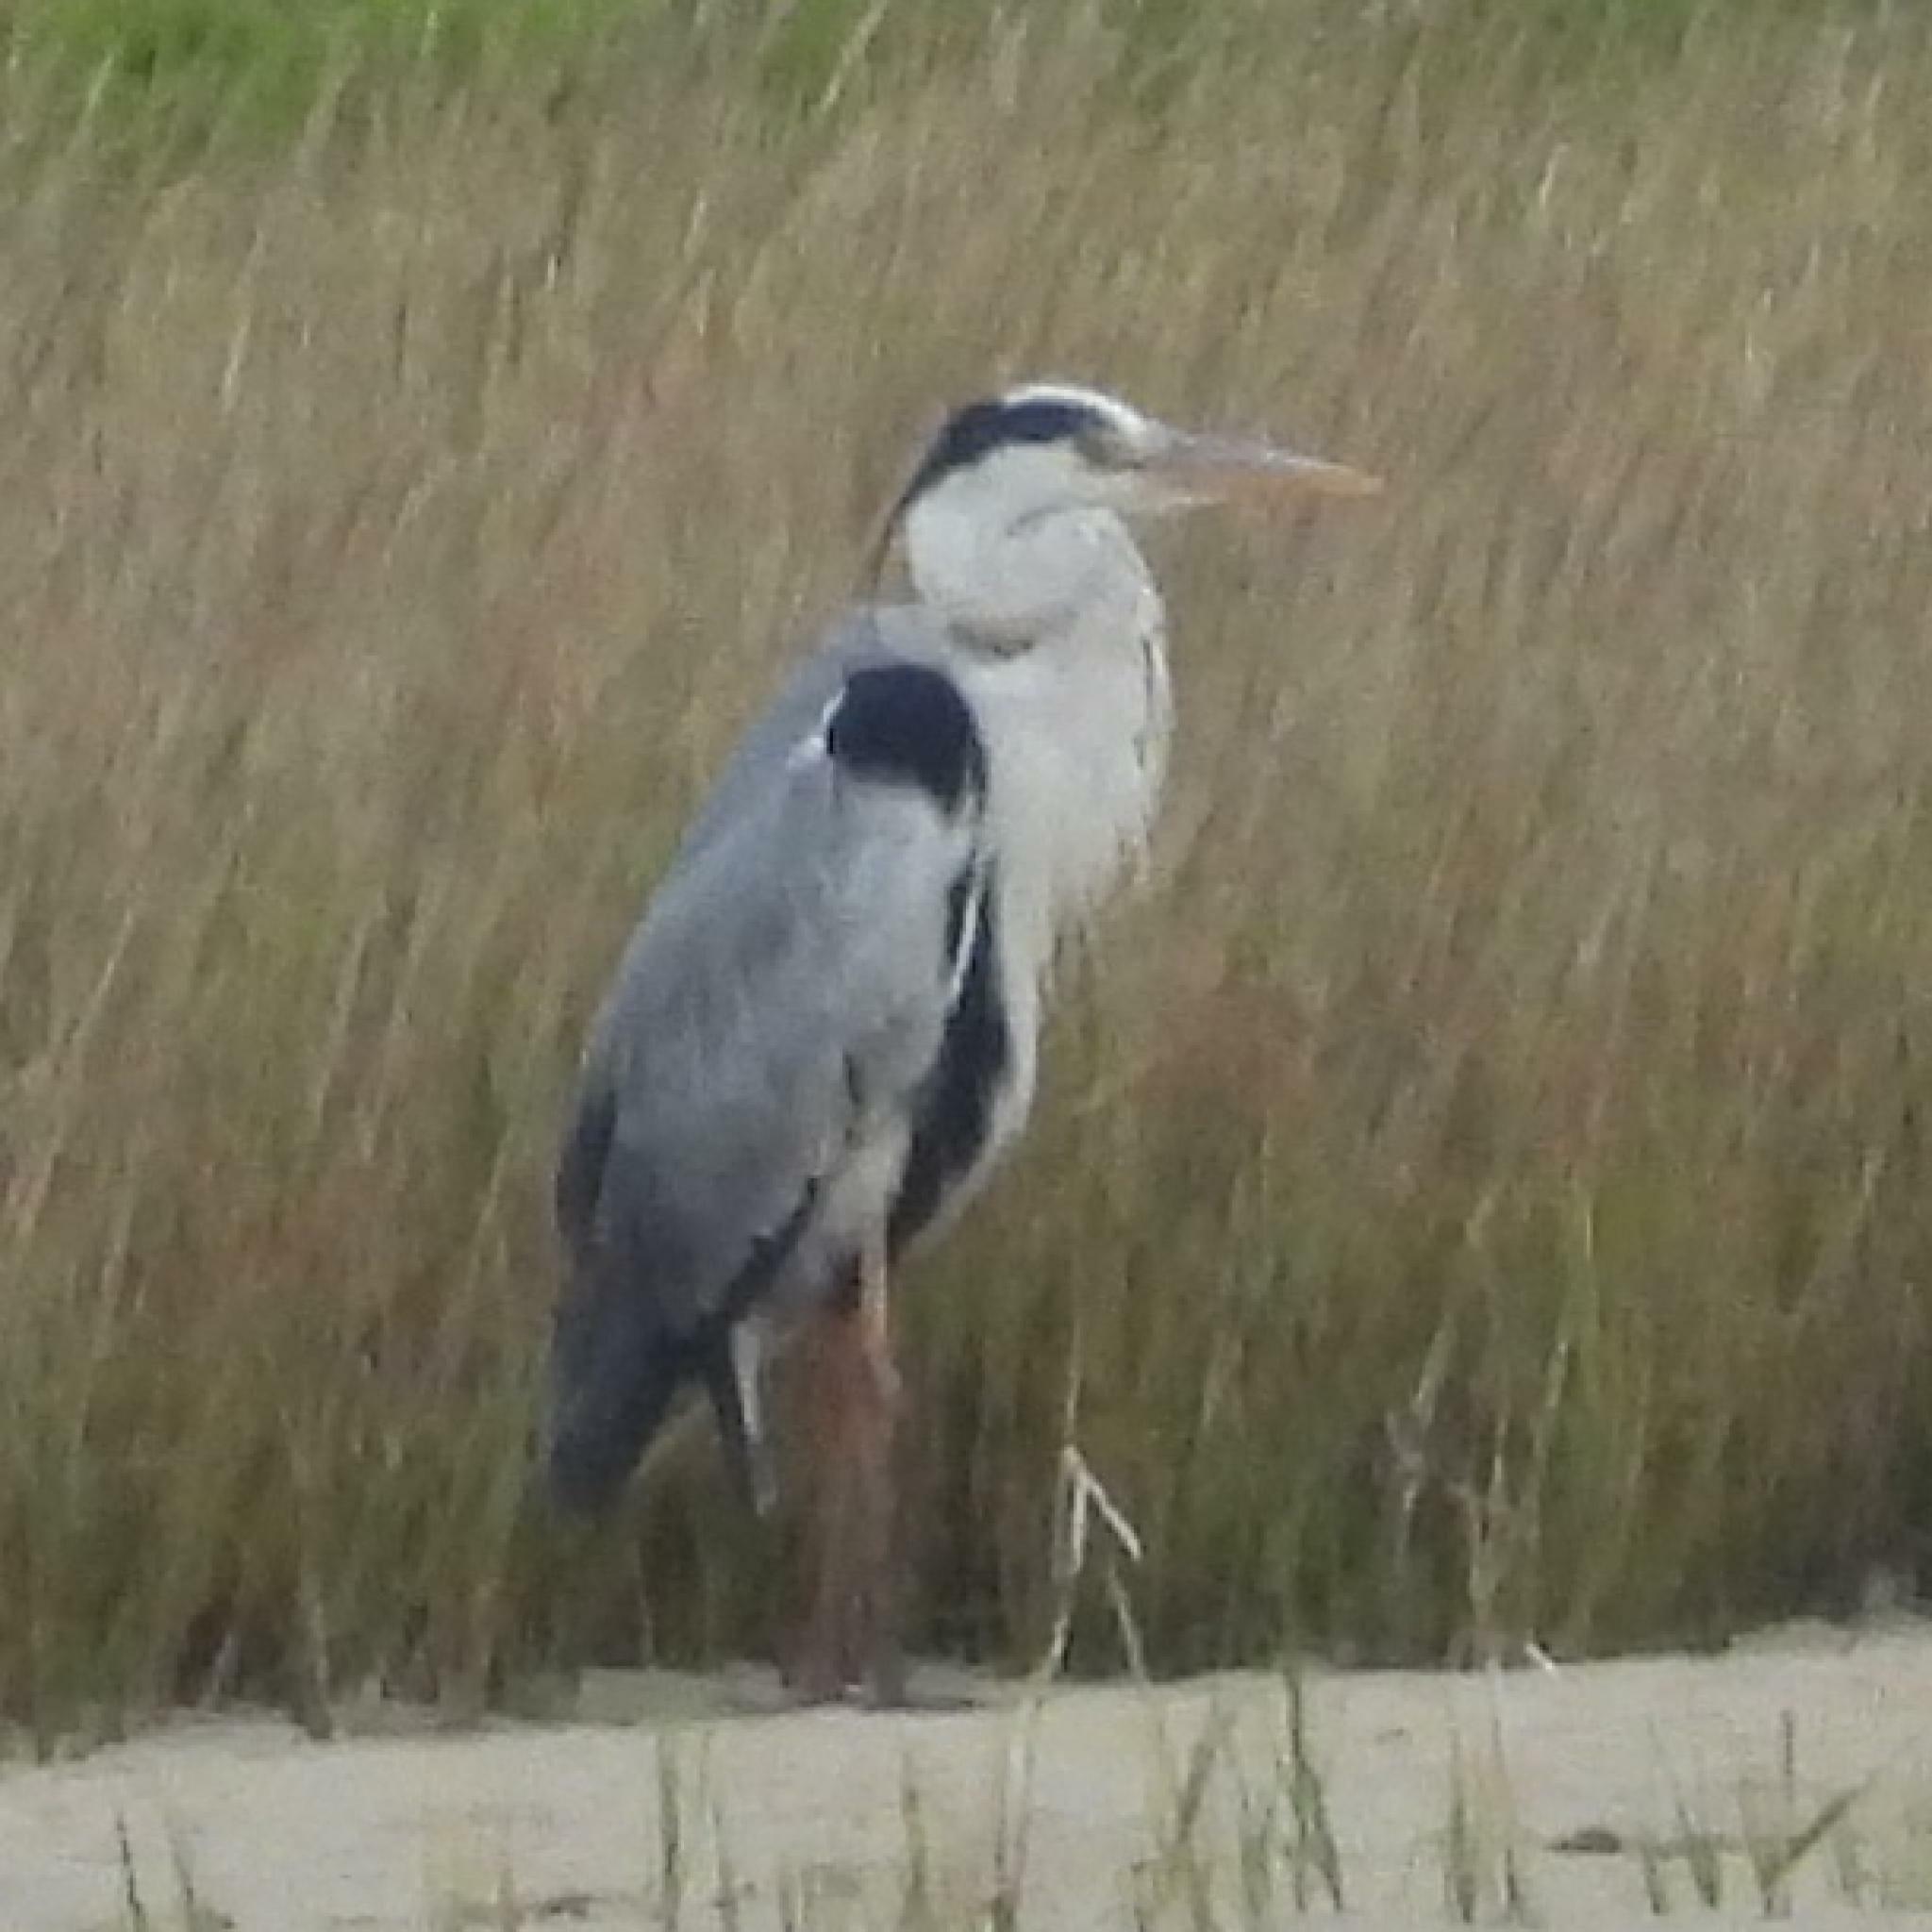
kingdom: Animalia
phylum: Chordata
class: Aves
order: Pelecaniformes
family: Ardeidae
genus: Ardea
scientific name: Ardea cinerea
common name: Grey heron
